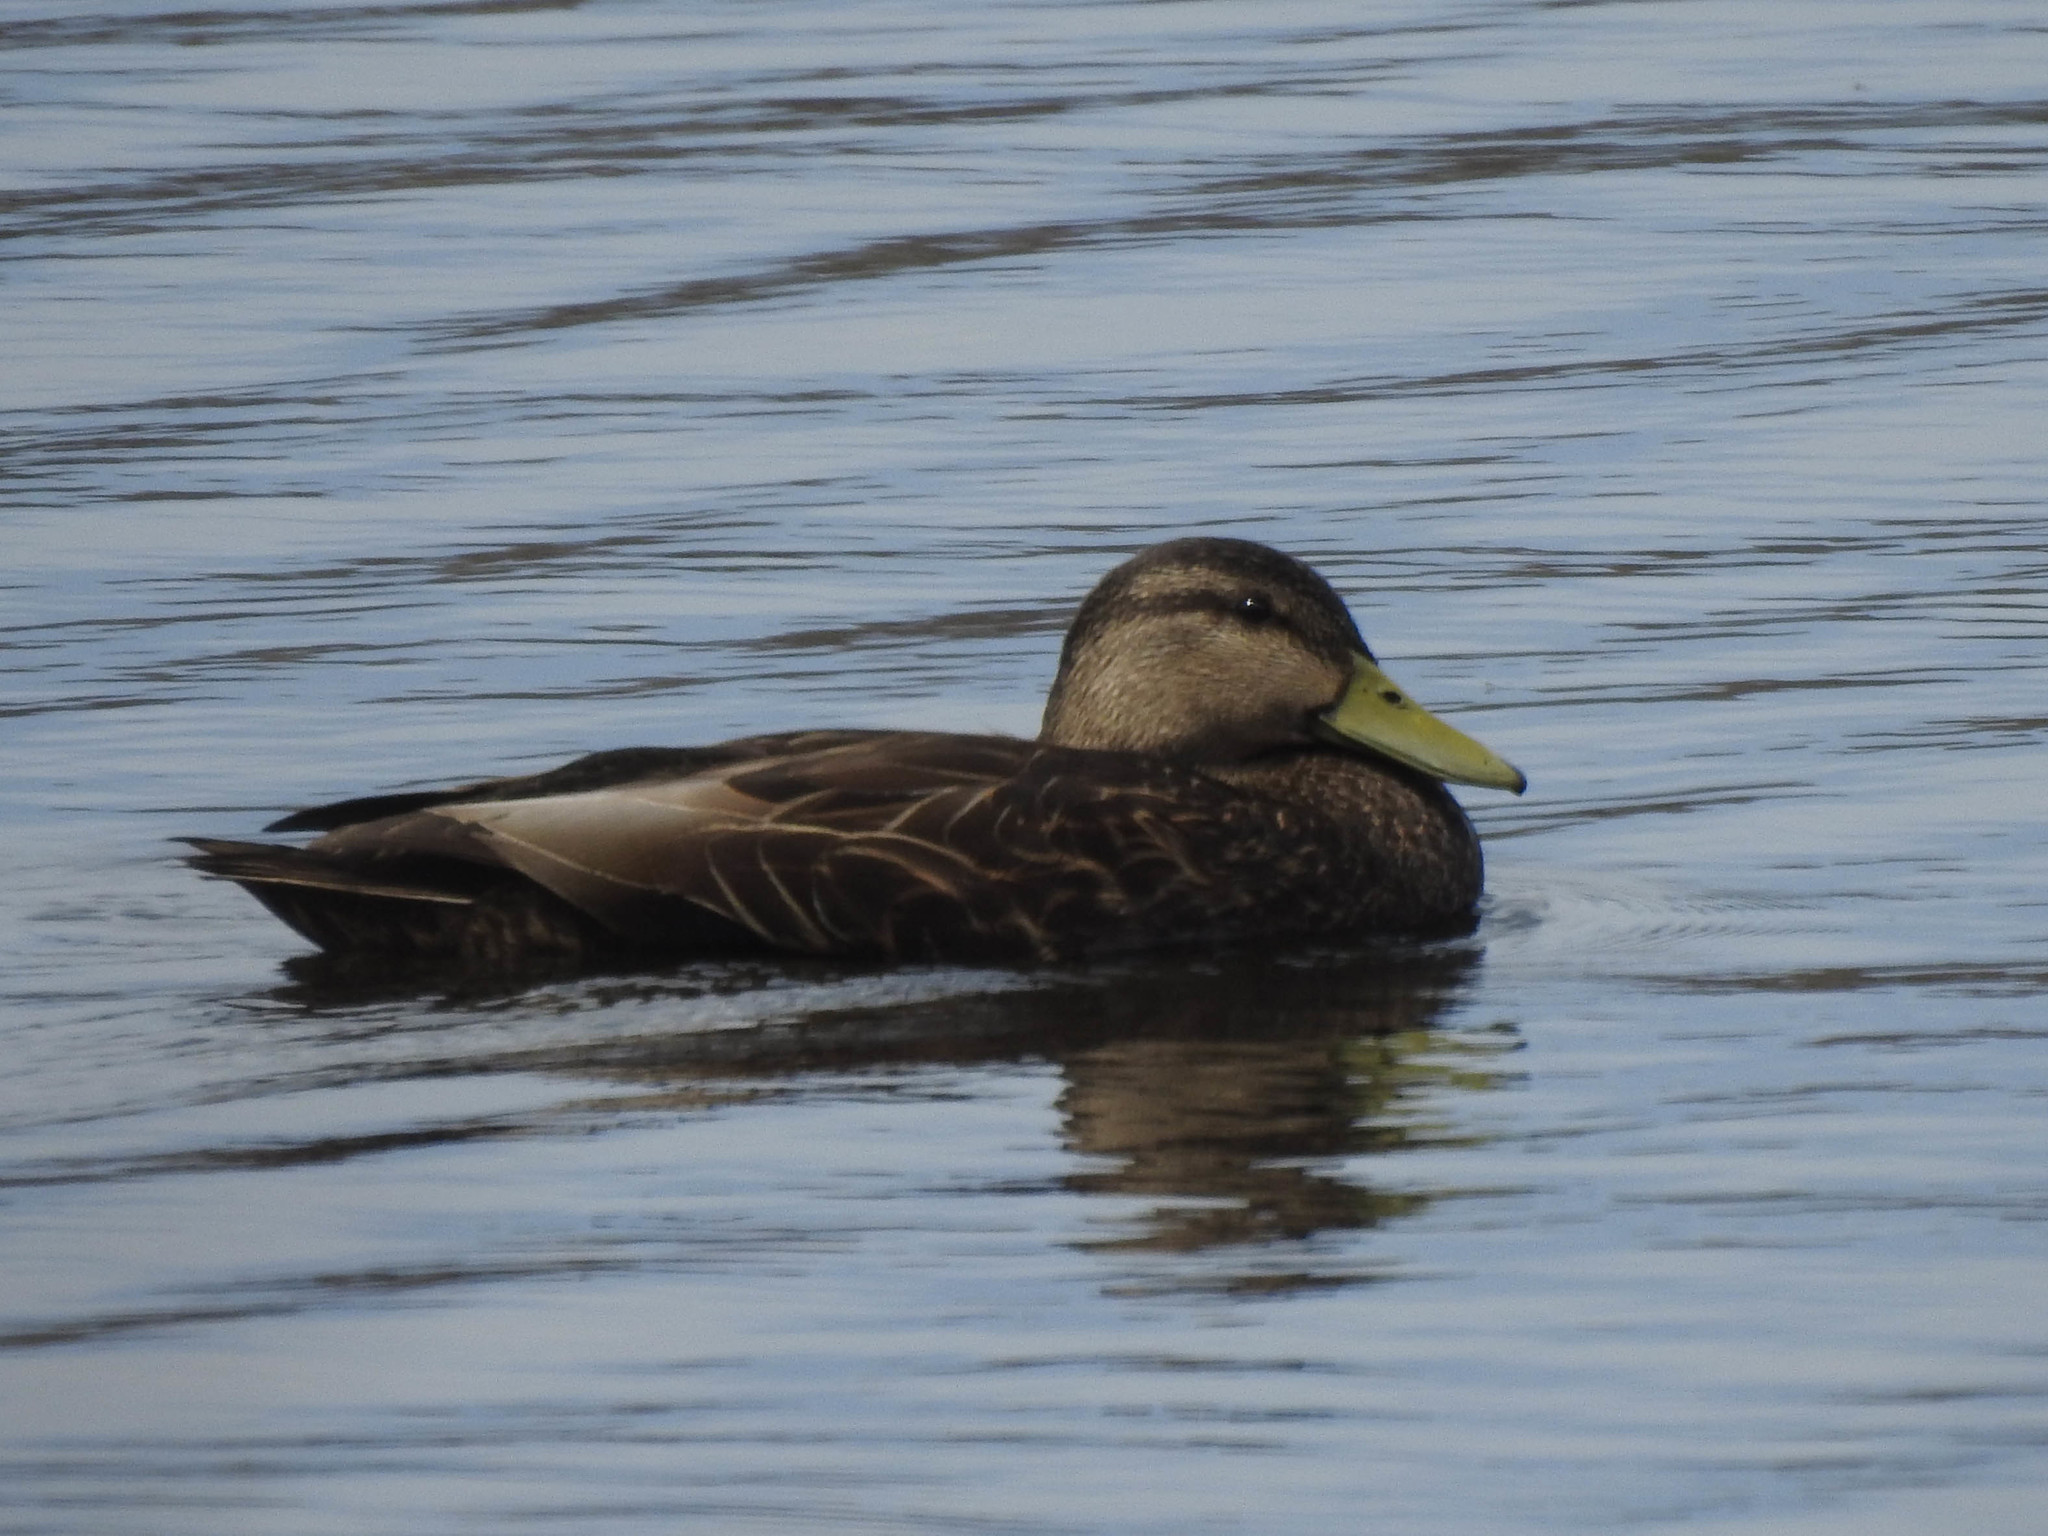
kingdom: Animalia
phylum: Chordata
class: Aves
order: Anseriformes
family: Anatidae
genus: Anas
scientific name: Anas rubripes
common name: American black duck
